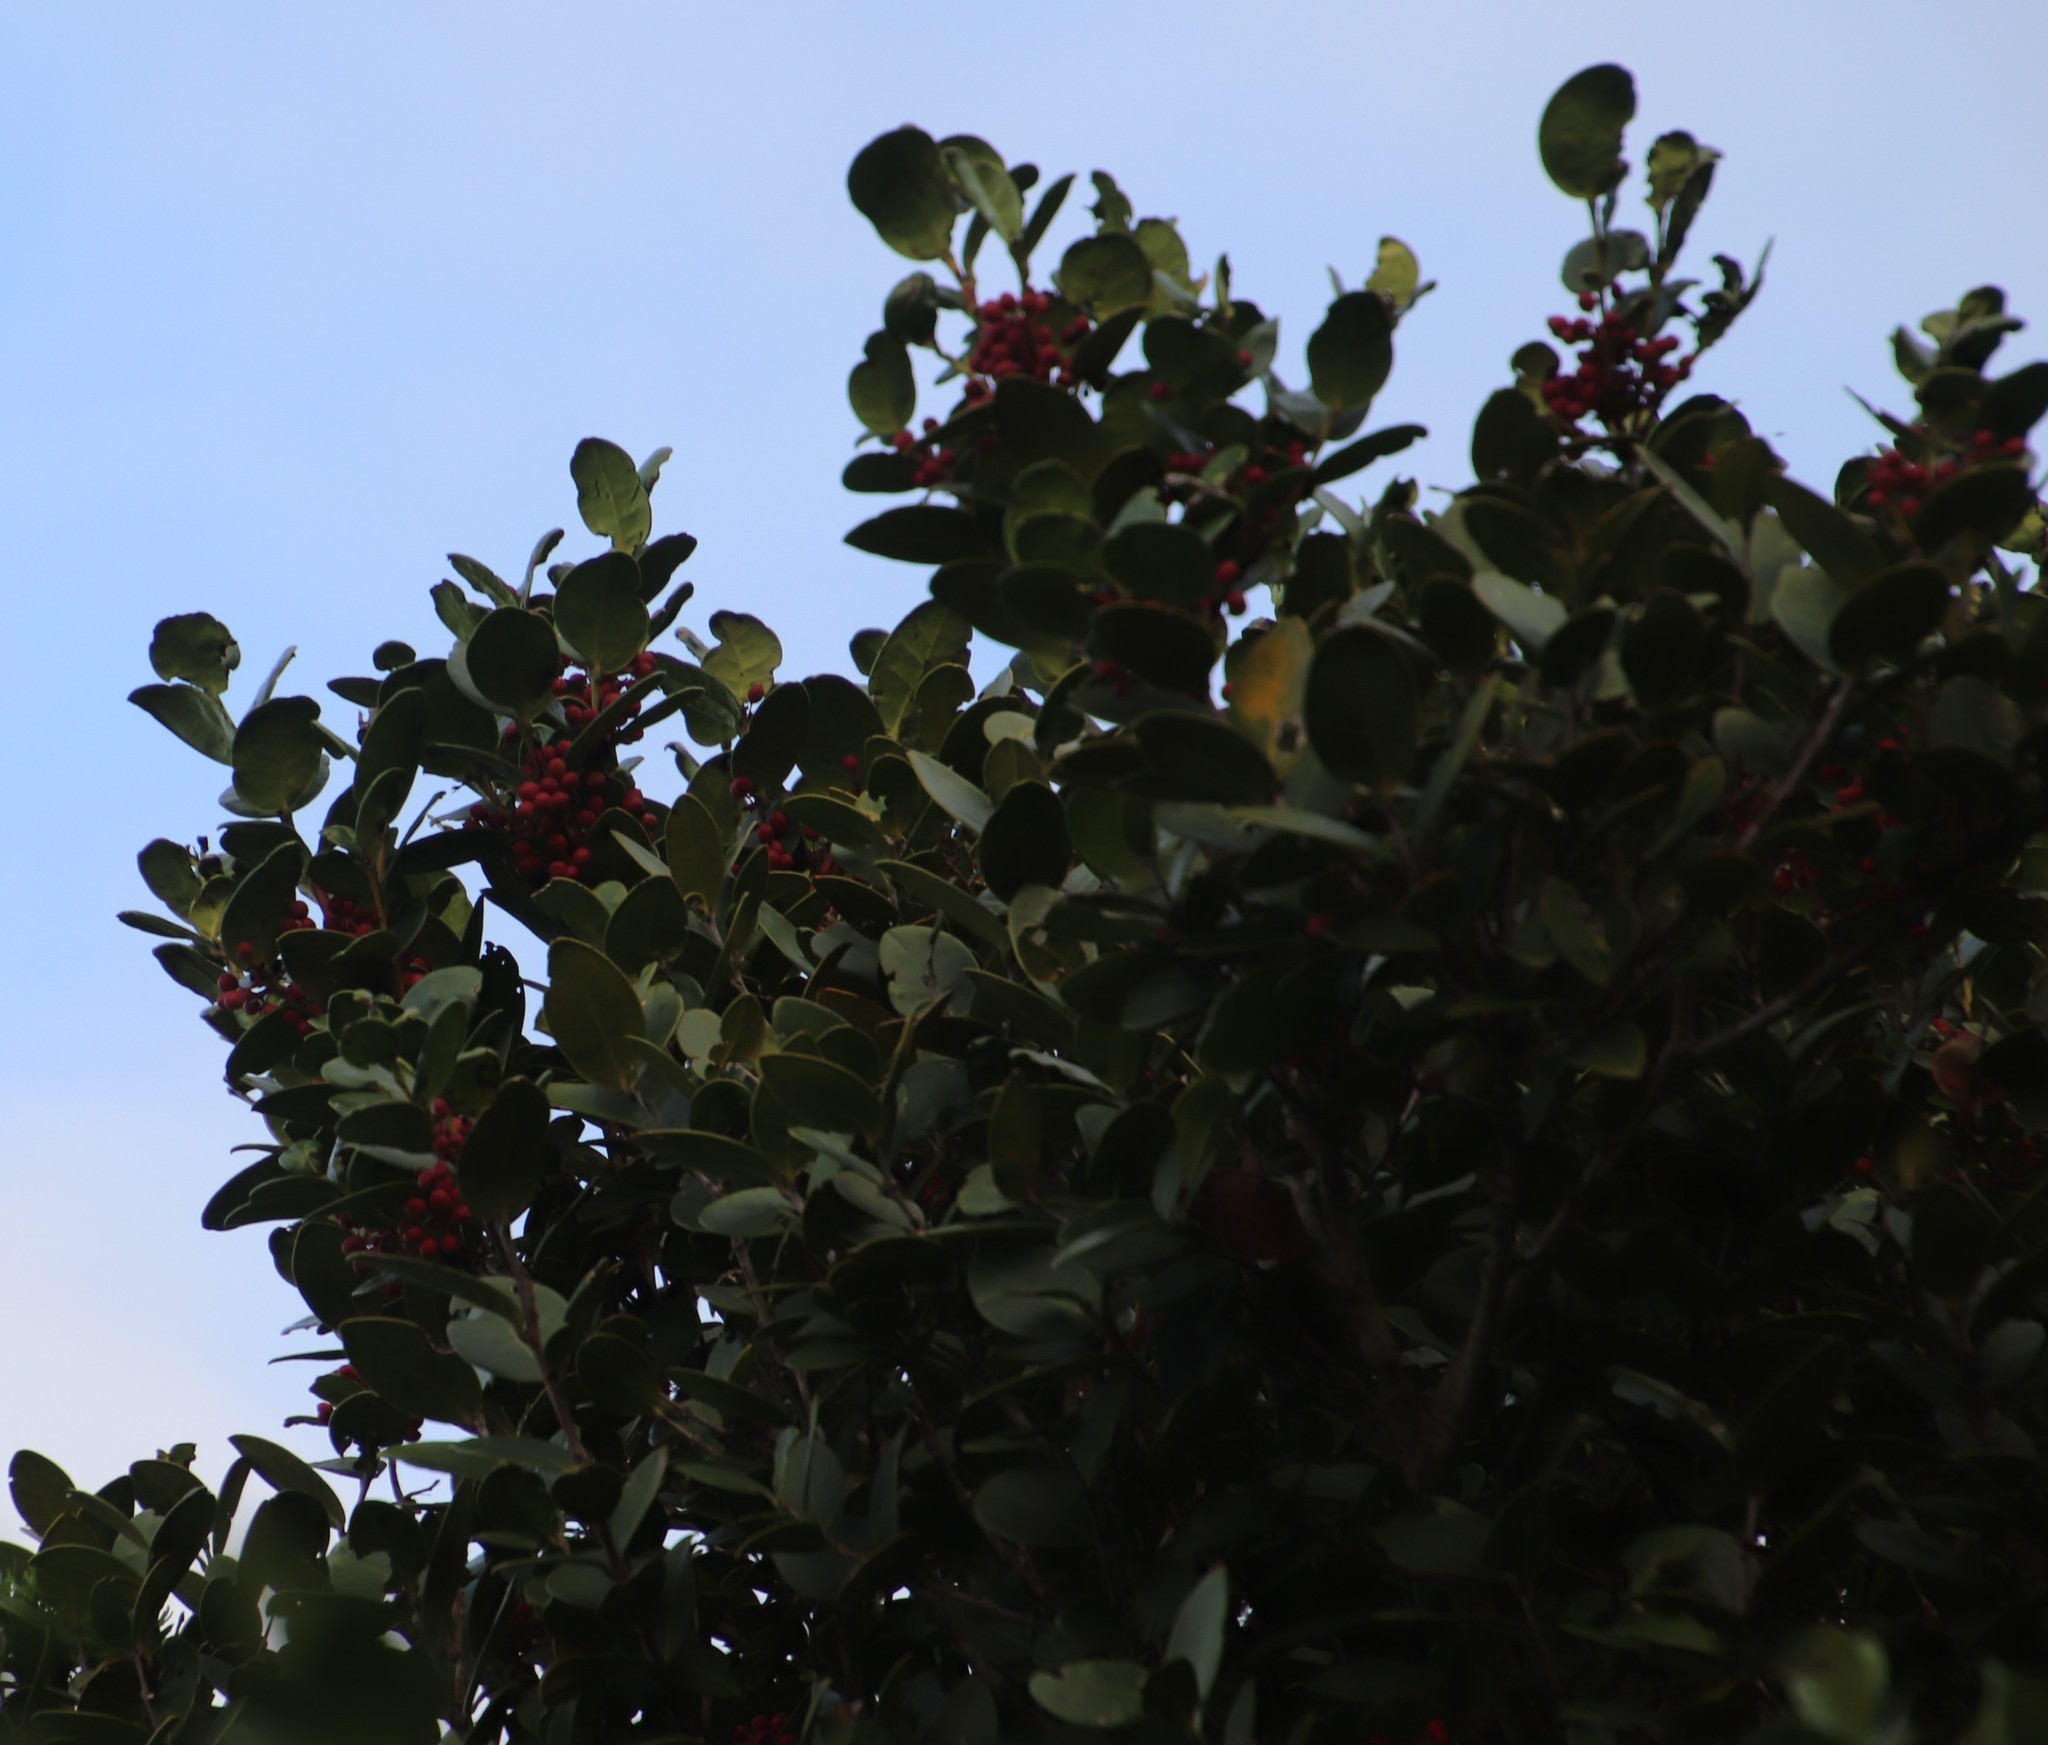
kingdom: Plantae
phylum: Tracheophyta
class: Magnoliopsida
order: Celastrales
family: Celastraceae
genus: Maurocenia
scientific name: Maurocenia frangula
